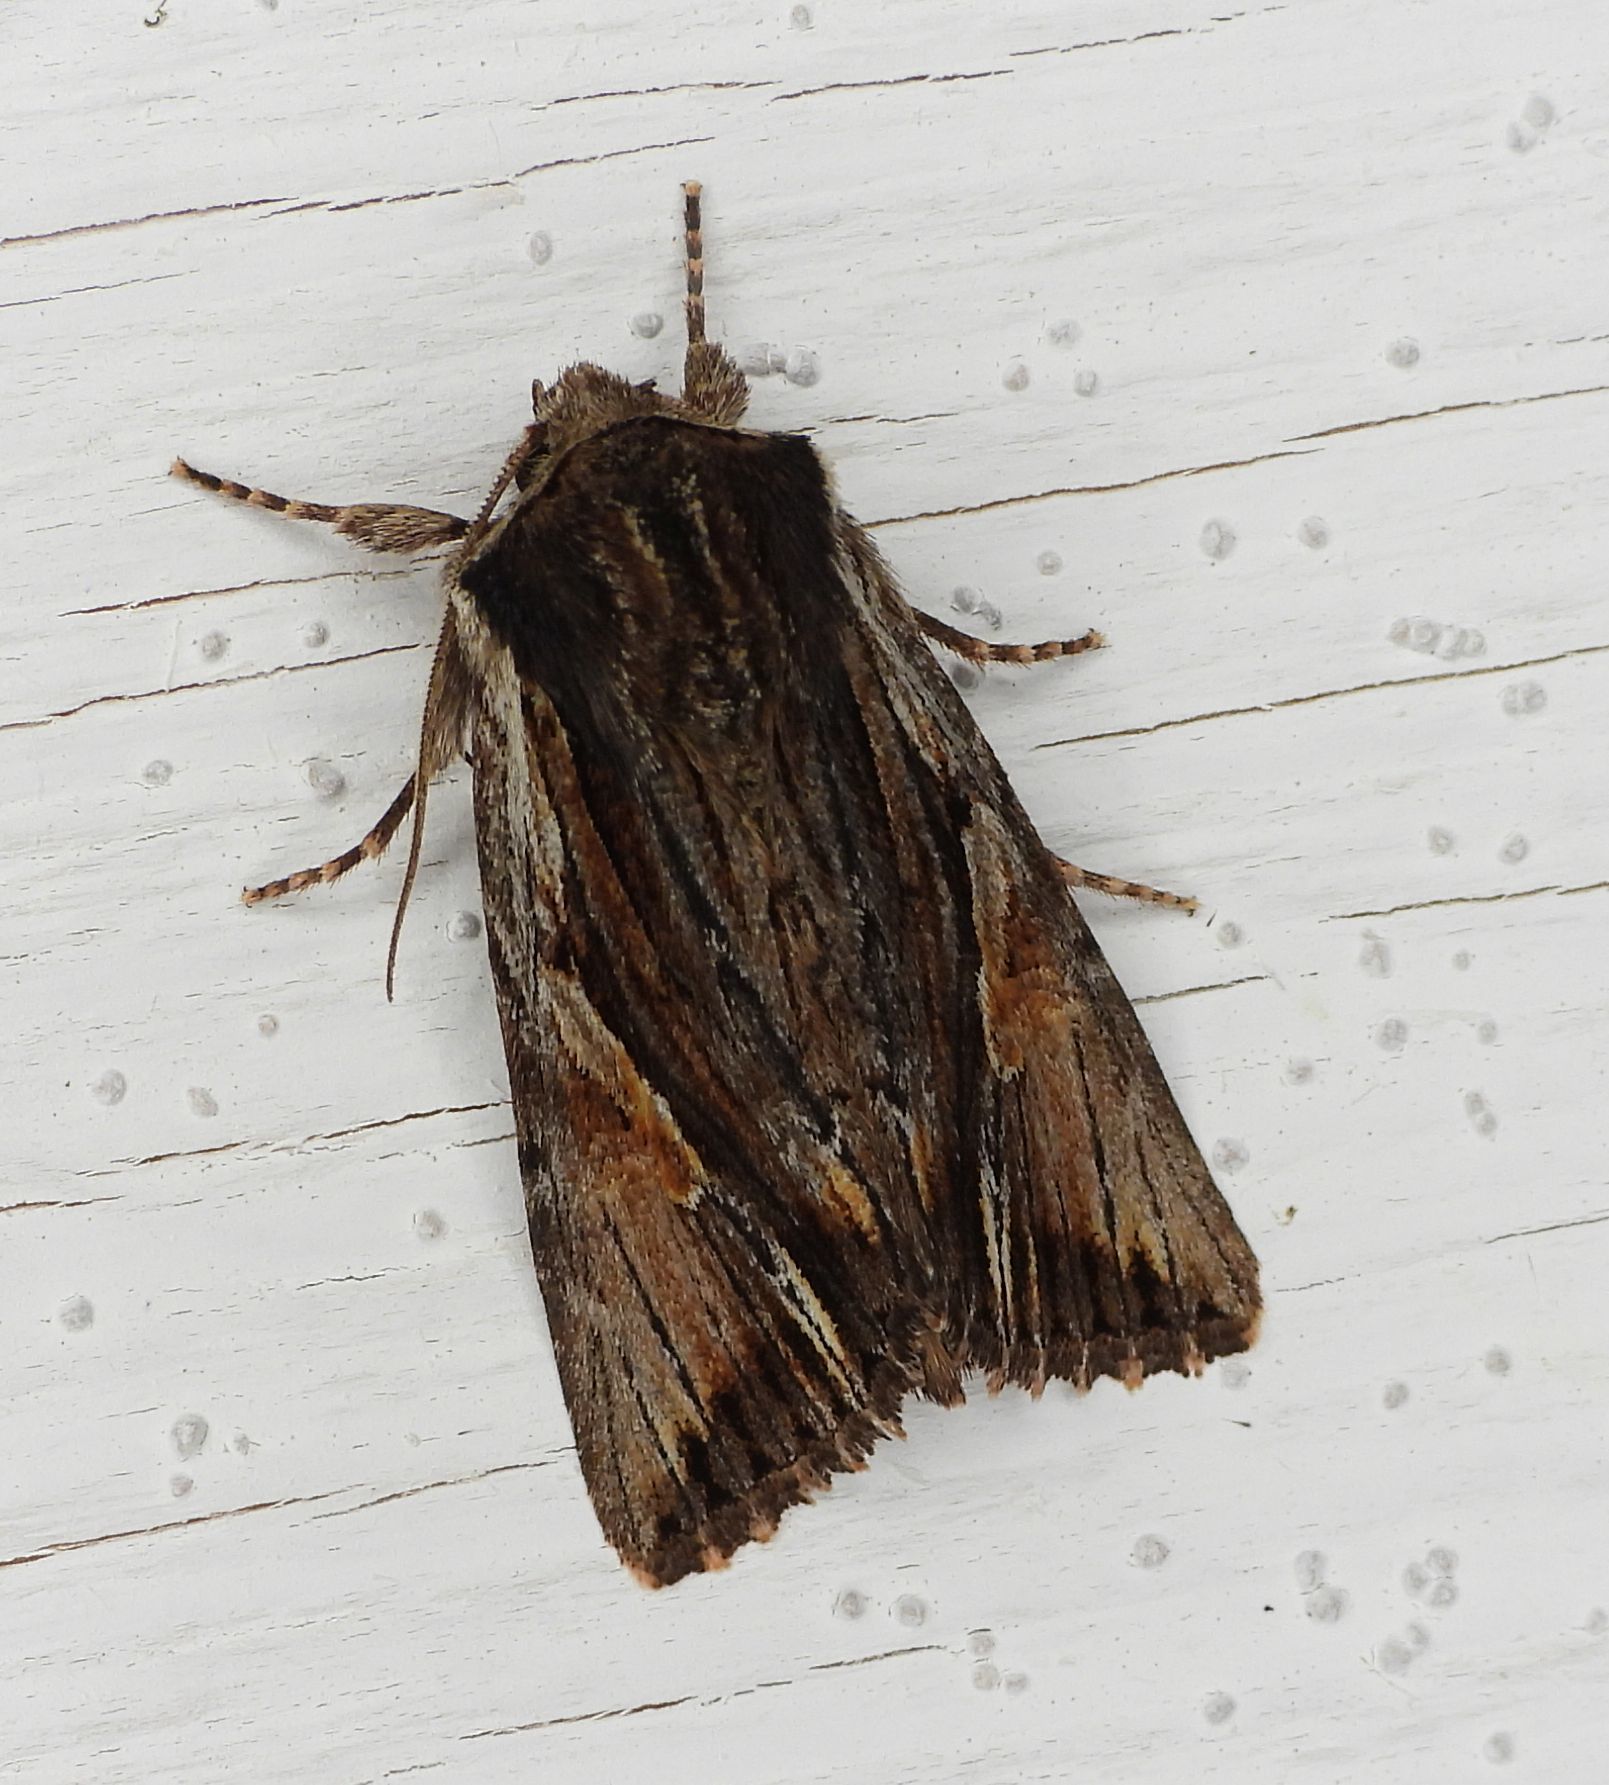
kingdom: Animalia
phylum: Arthropoda
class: Insecta
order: Lepidoptera
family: Noctuidae
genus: Achatia
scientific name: Achatia evicta
